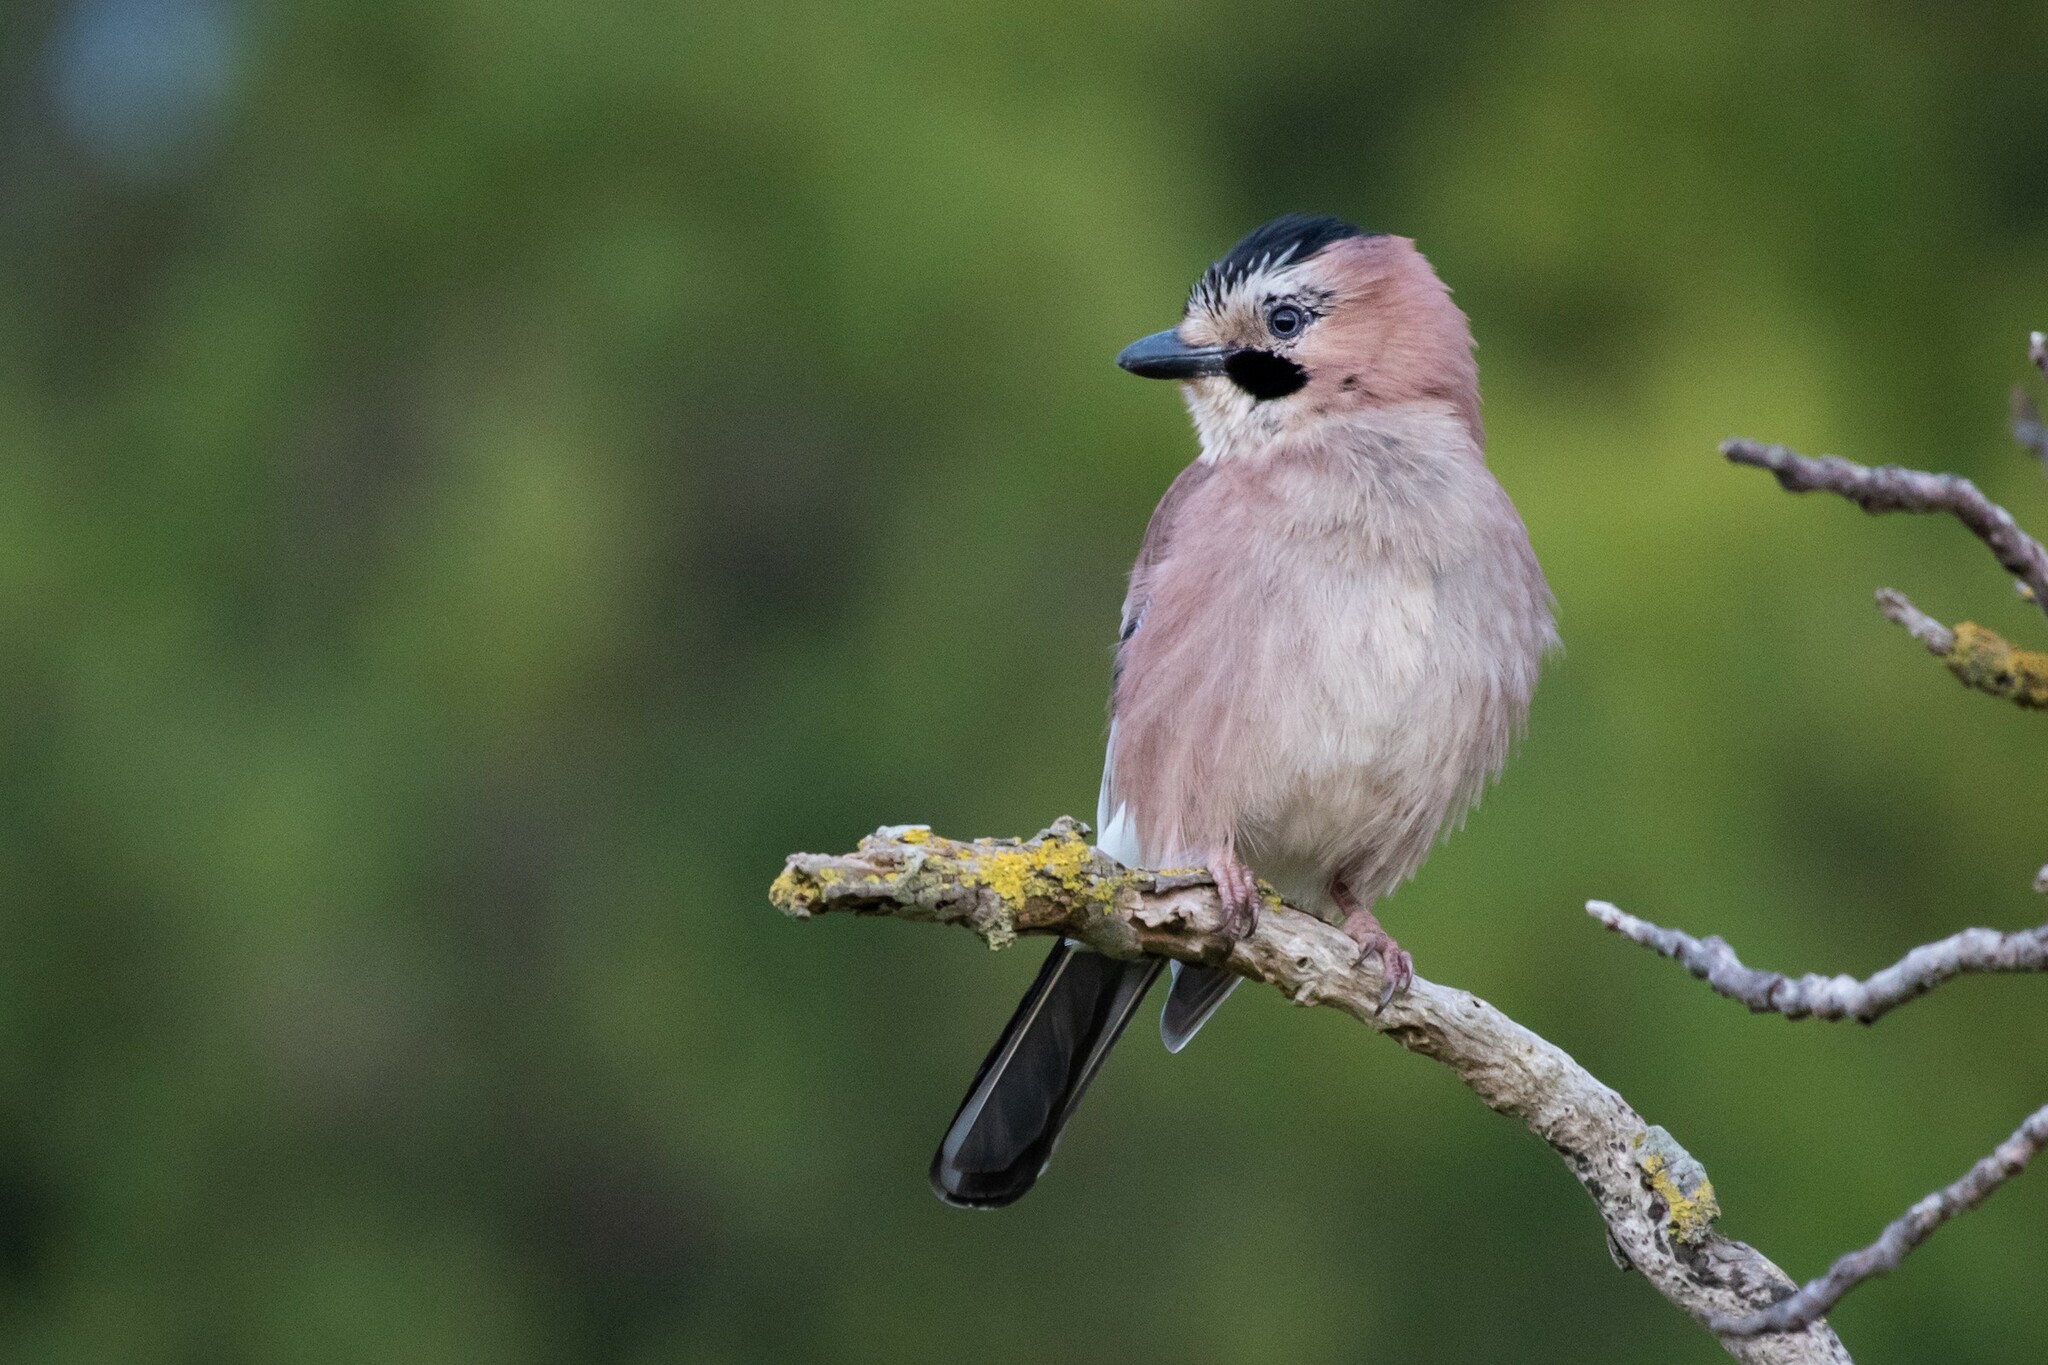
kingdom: Animalia
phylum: Chordata
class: Aves
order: Passeriformes
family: Corvidae
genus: Garrulus
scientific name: Garrulus glandarius
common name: Eurasian jay
